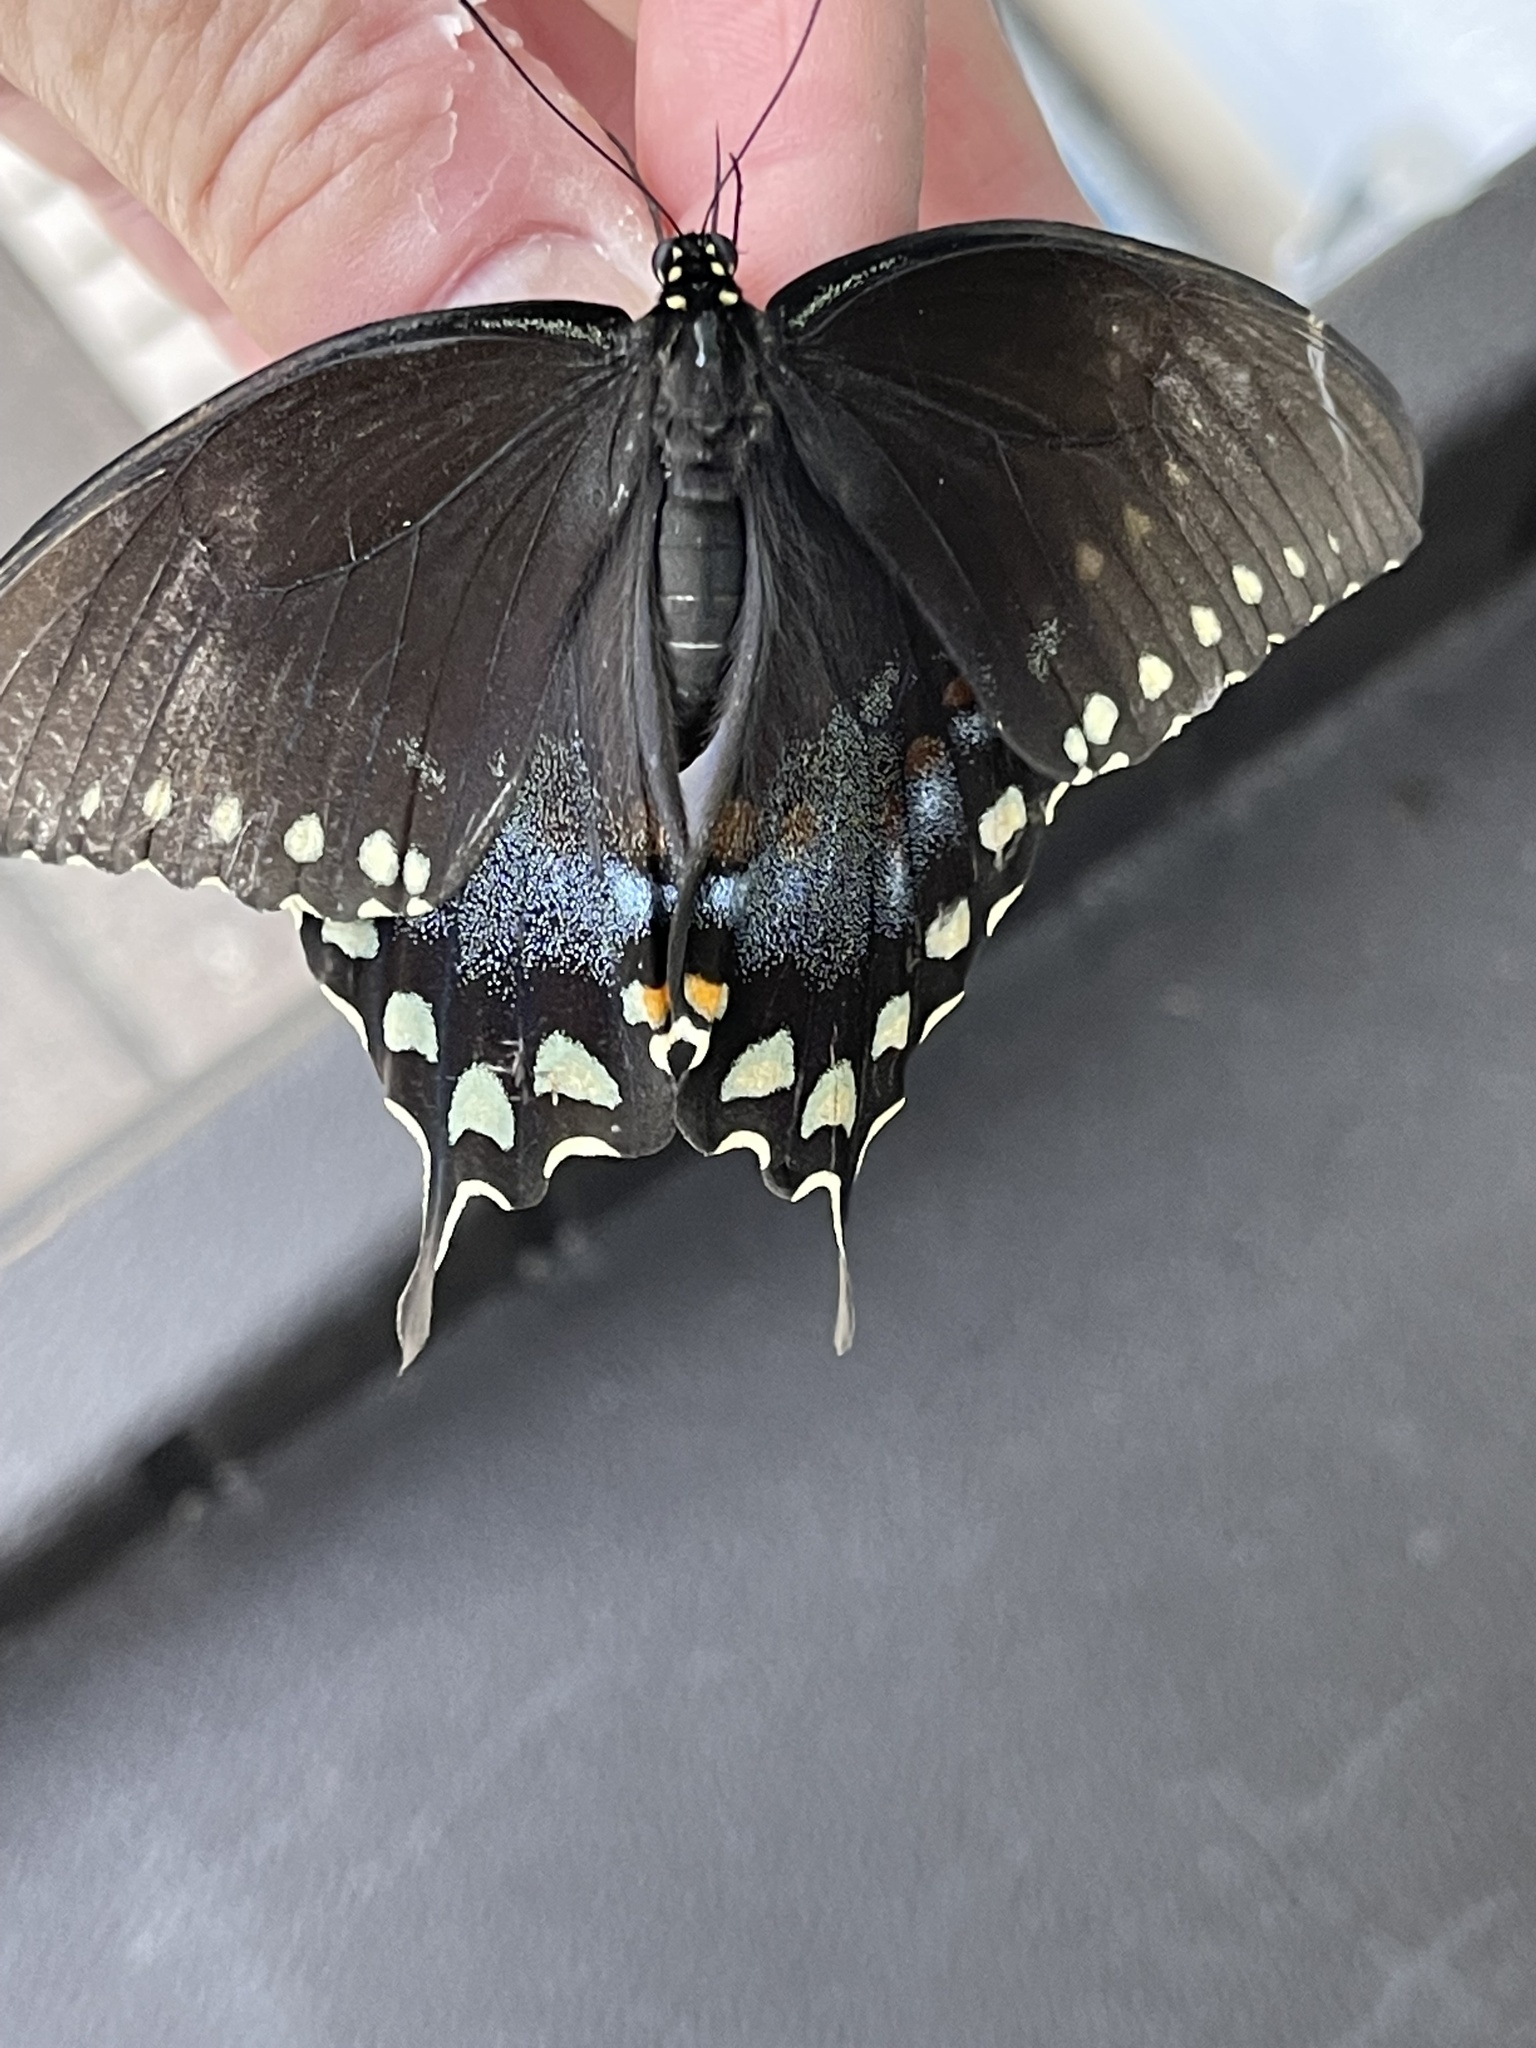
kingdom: Animalia
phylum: Arthropoda
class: Insecta
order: Lepidoptera
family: Papilionidae
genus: Papilio
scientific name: Papilio troilus
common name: Spicebush swallowtail
